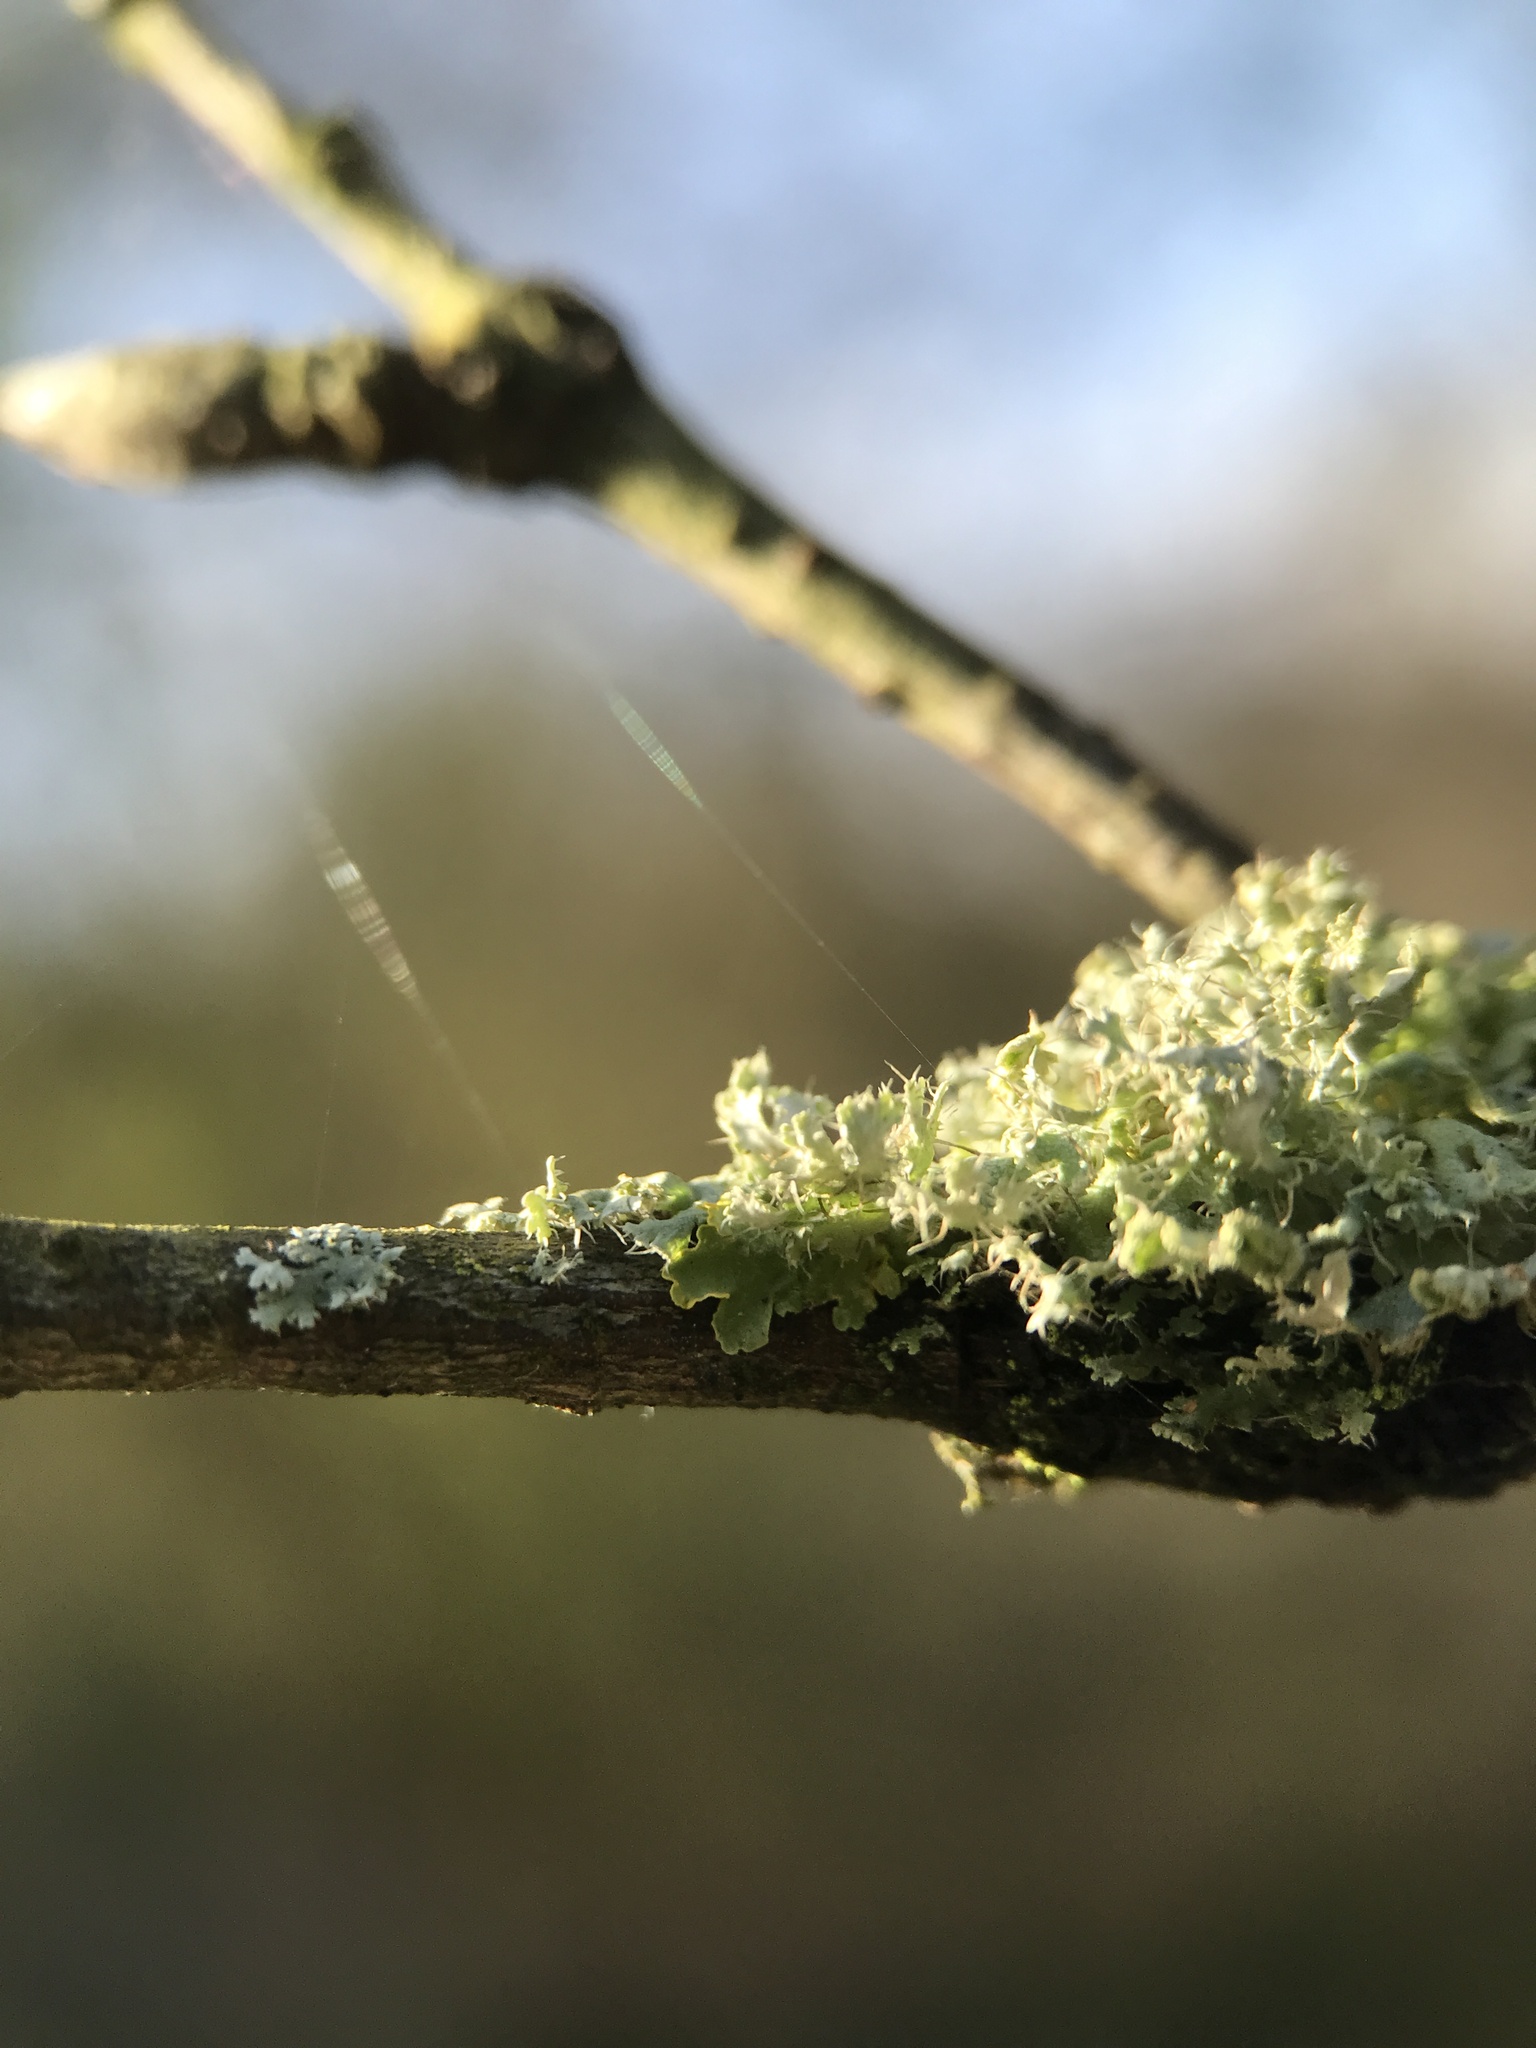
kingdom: Fungi
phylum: Ascomycota
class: Lecanoromycetes
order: Caliciales
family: Physciaceae
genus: Physcia
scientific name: Physcia tenella
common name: Fringed rosette lichen
